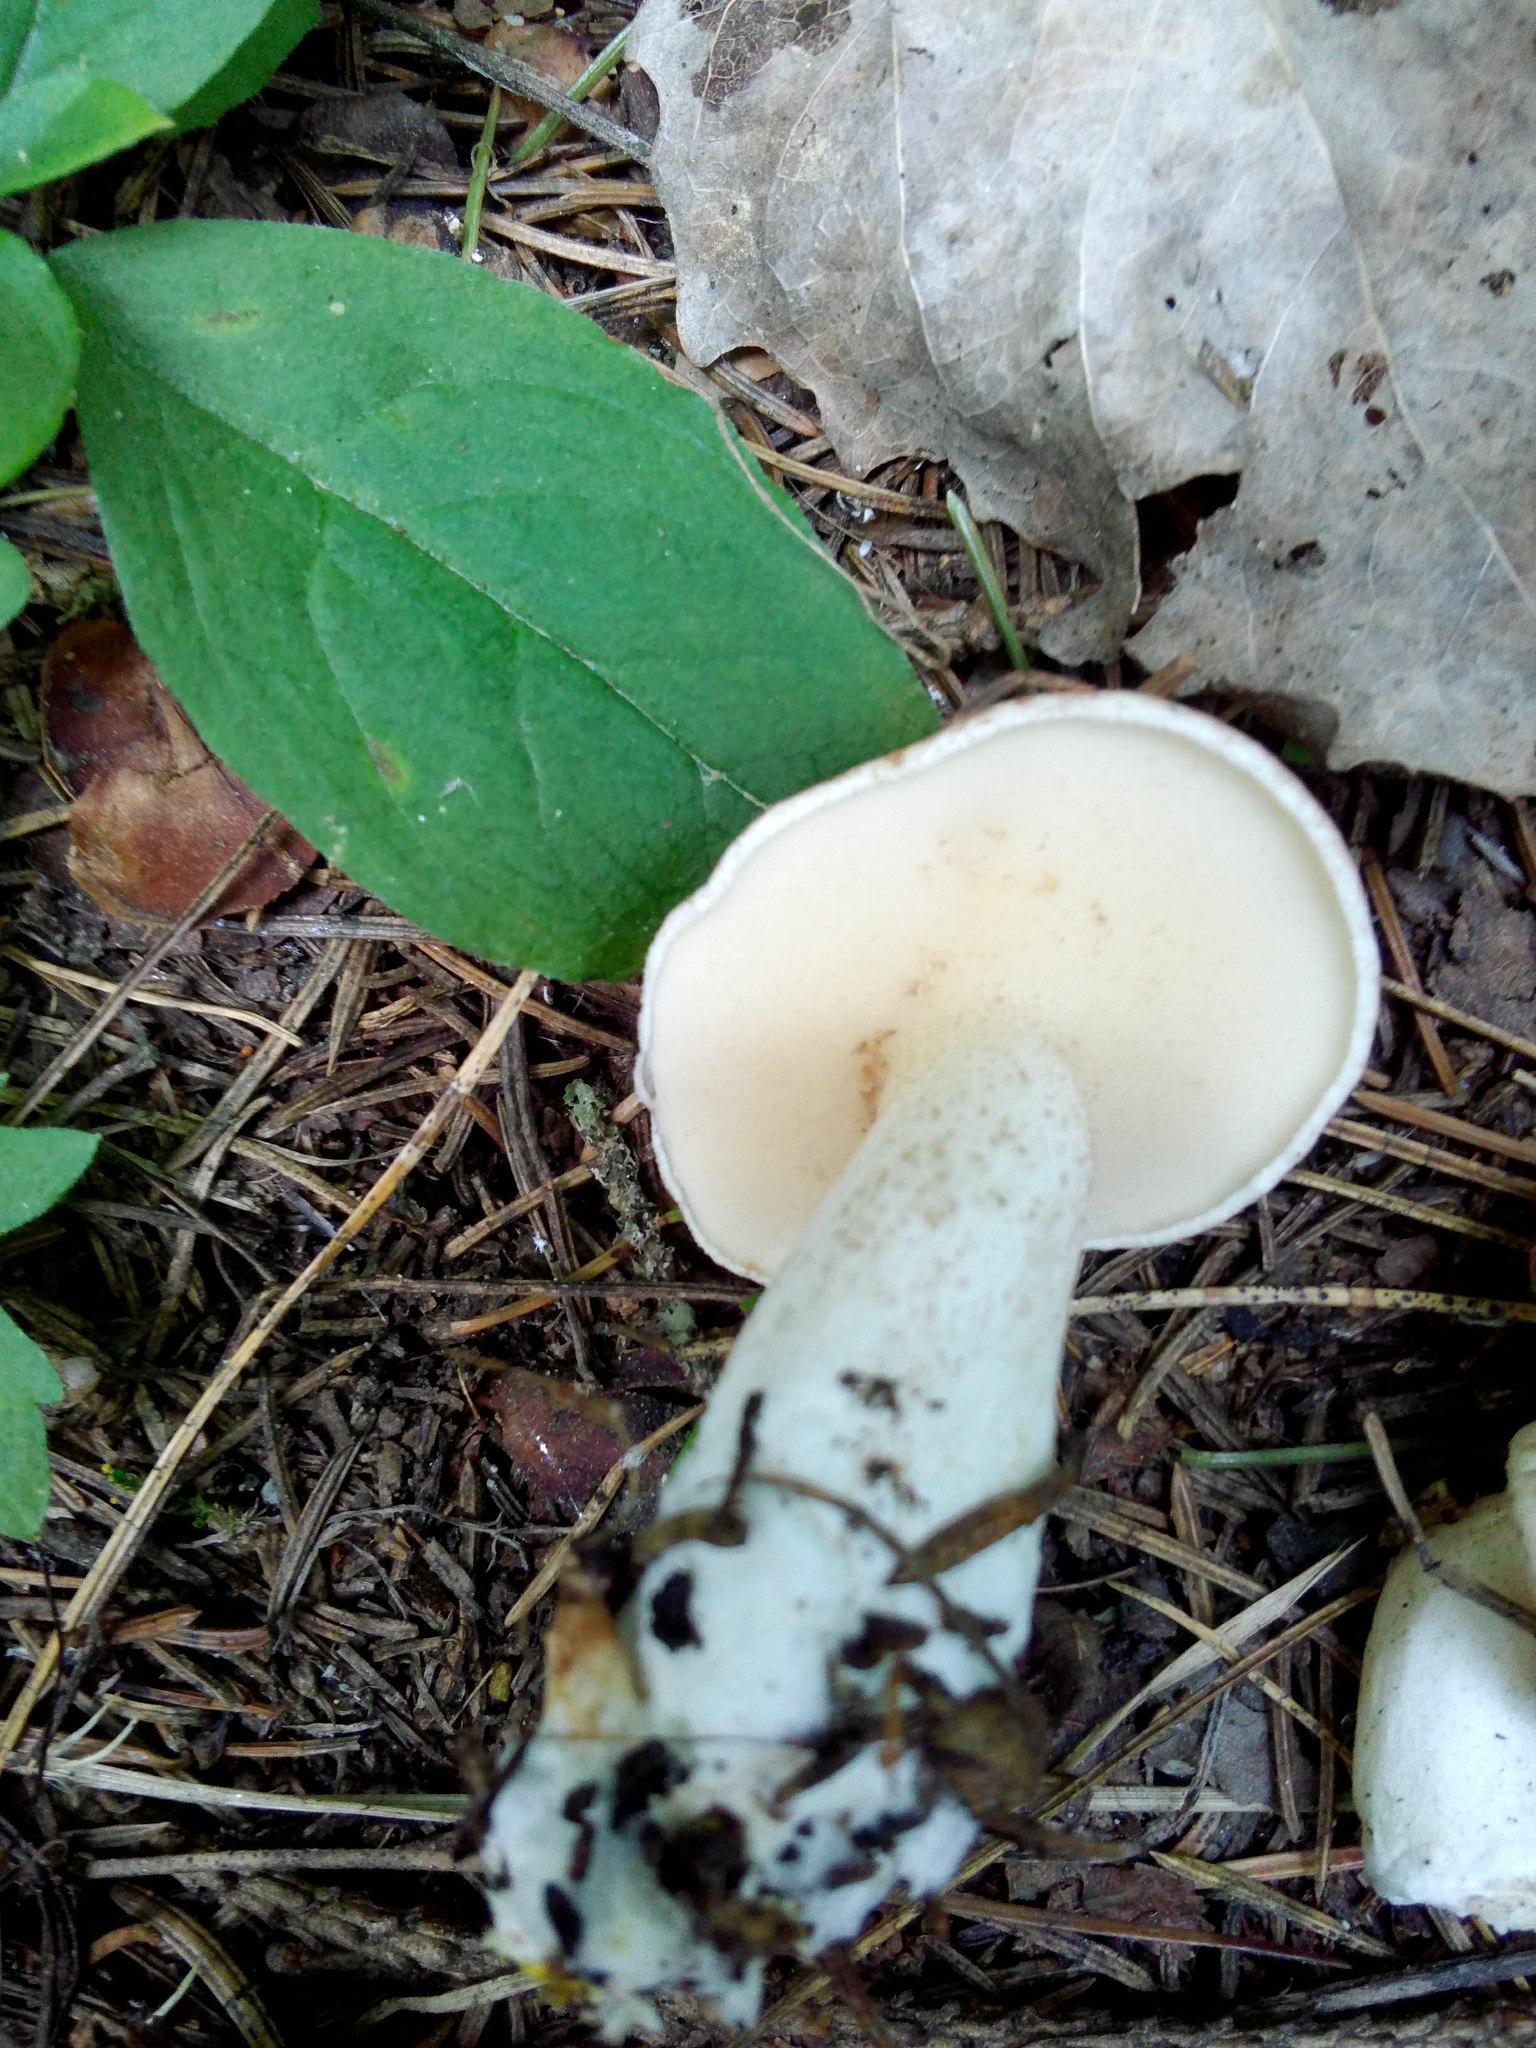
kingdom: Fungi
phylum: Basidiomycota
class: Agaricomycetes
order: Boletales
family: Suillaceae
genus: Suillus
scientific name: Suillus placidus
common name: Slippery white bolete
